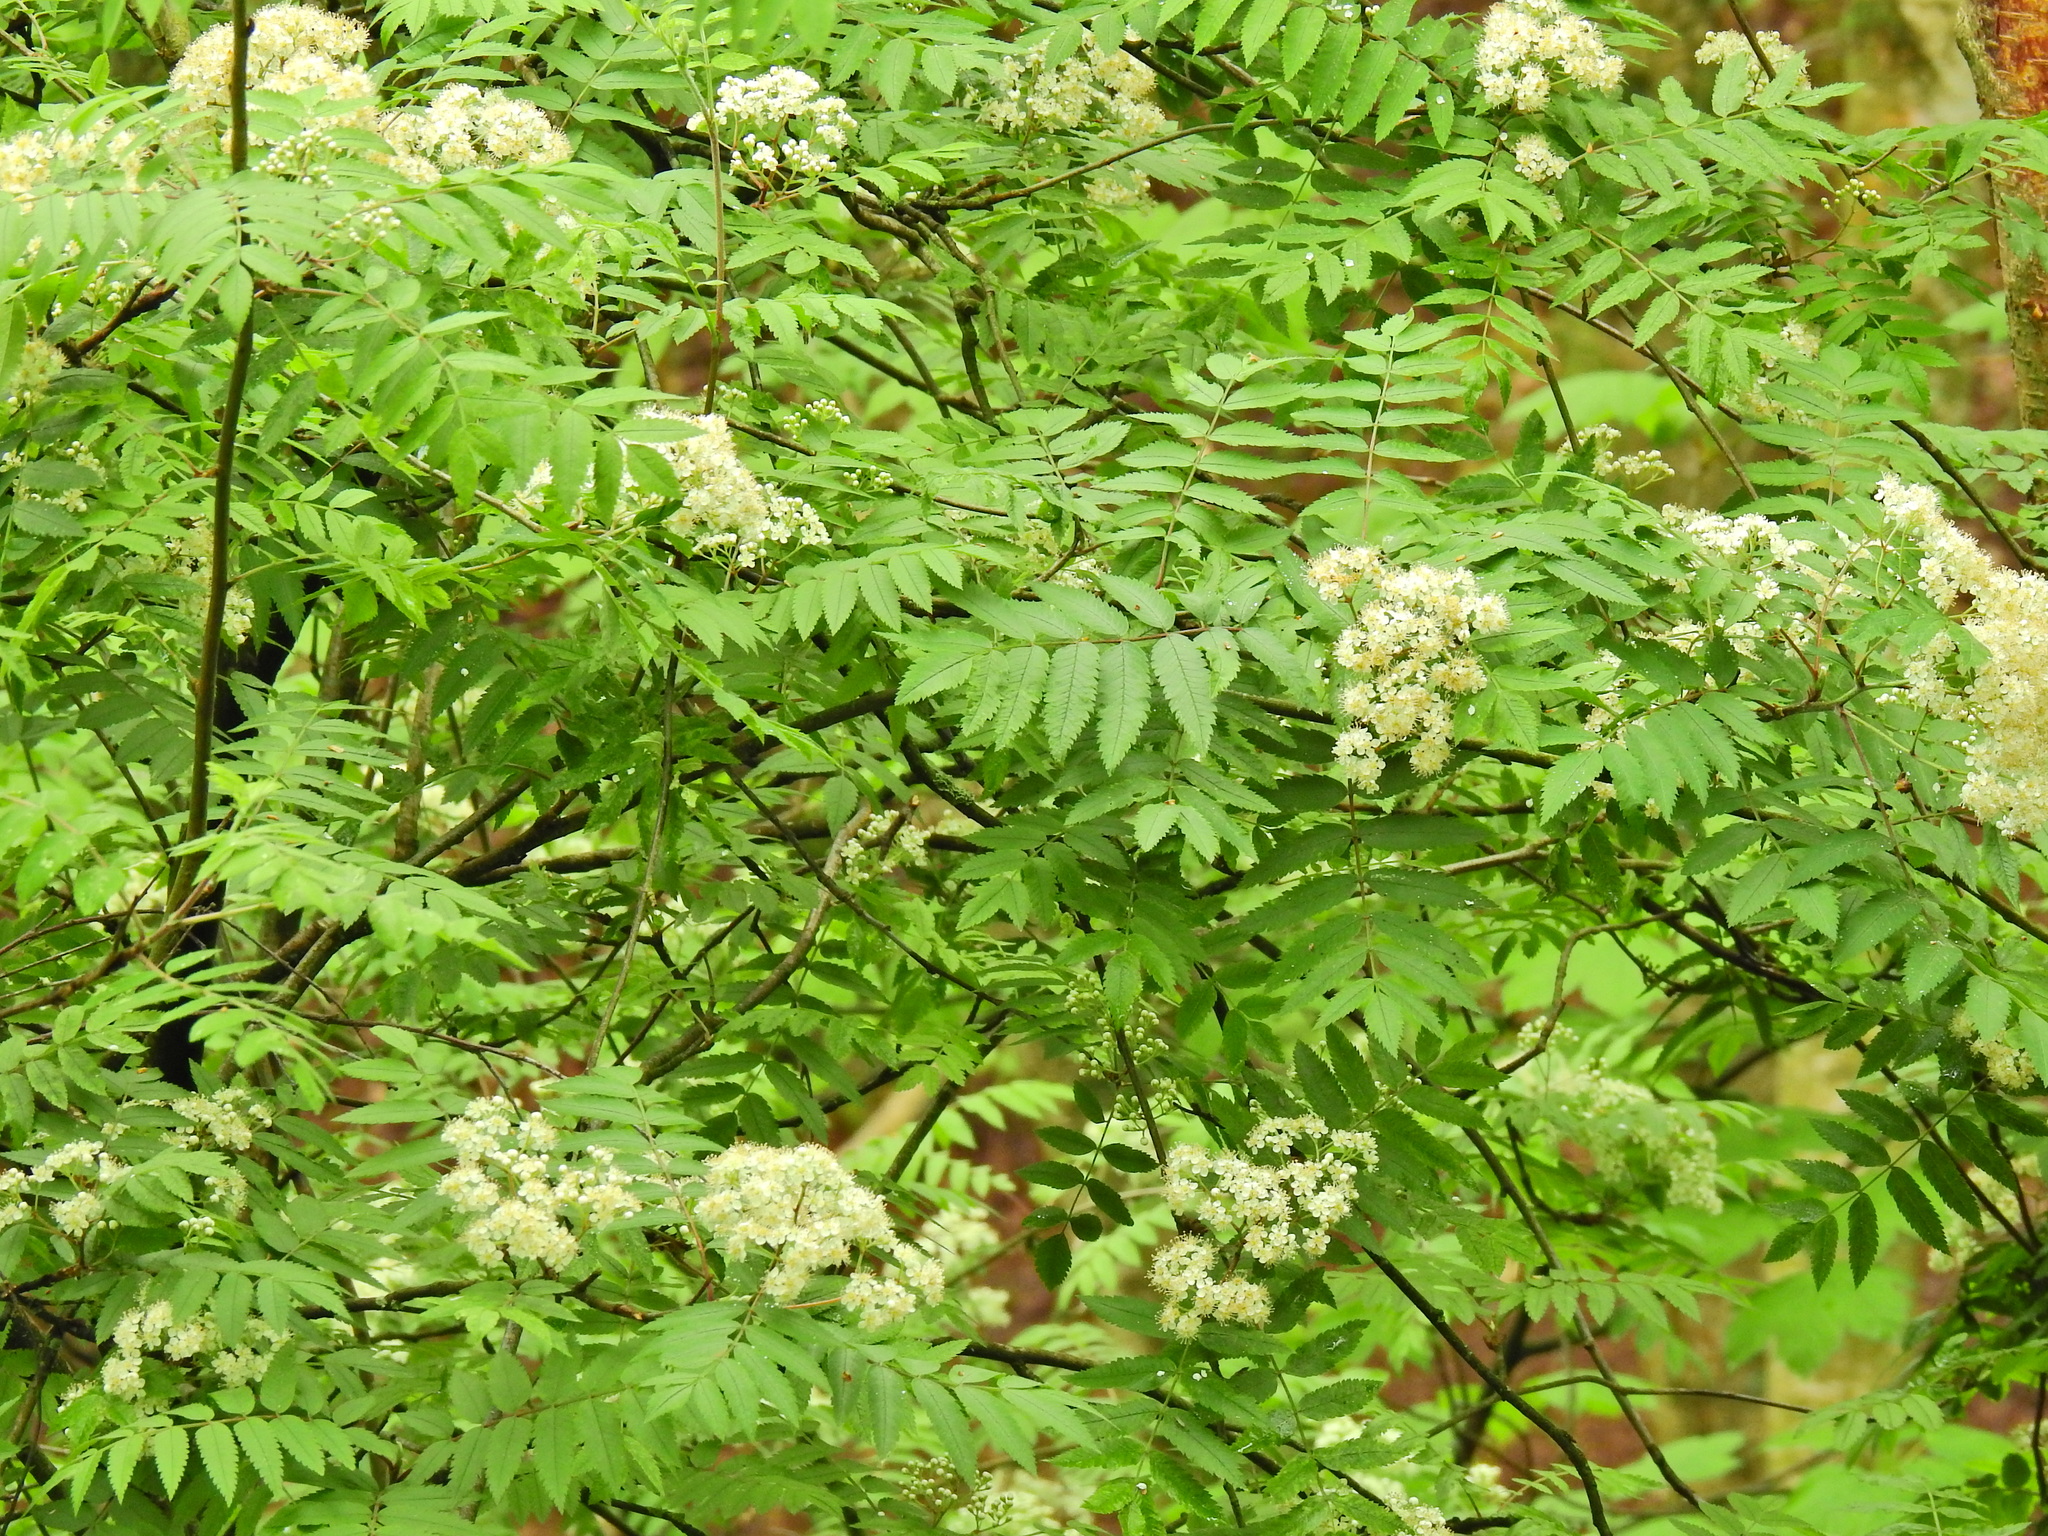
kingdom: Plantae
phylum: Tracheophyta
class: Magnoliopsida
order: Rosales
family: Rosaceae
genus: Sorbus
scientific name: Sorbus aucuparia
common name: Rowan
